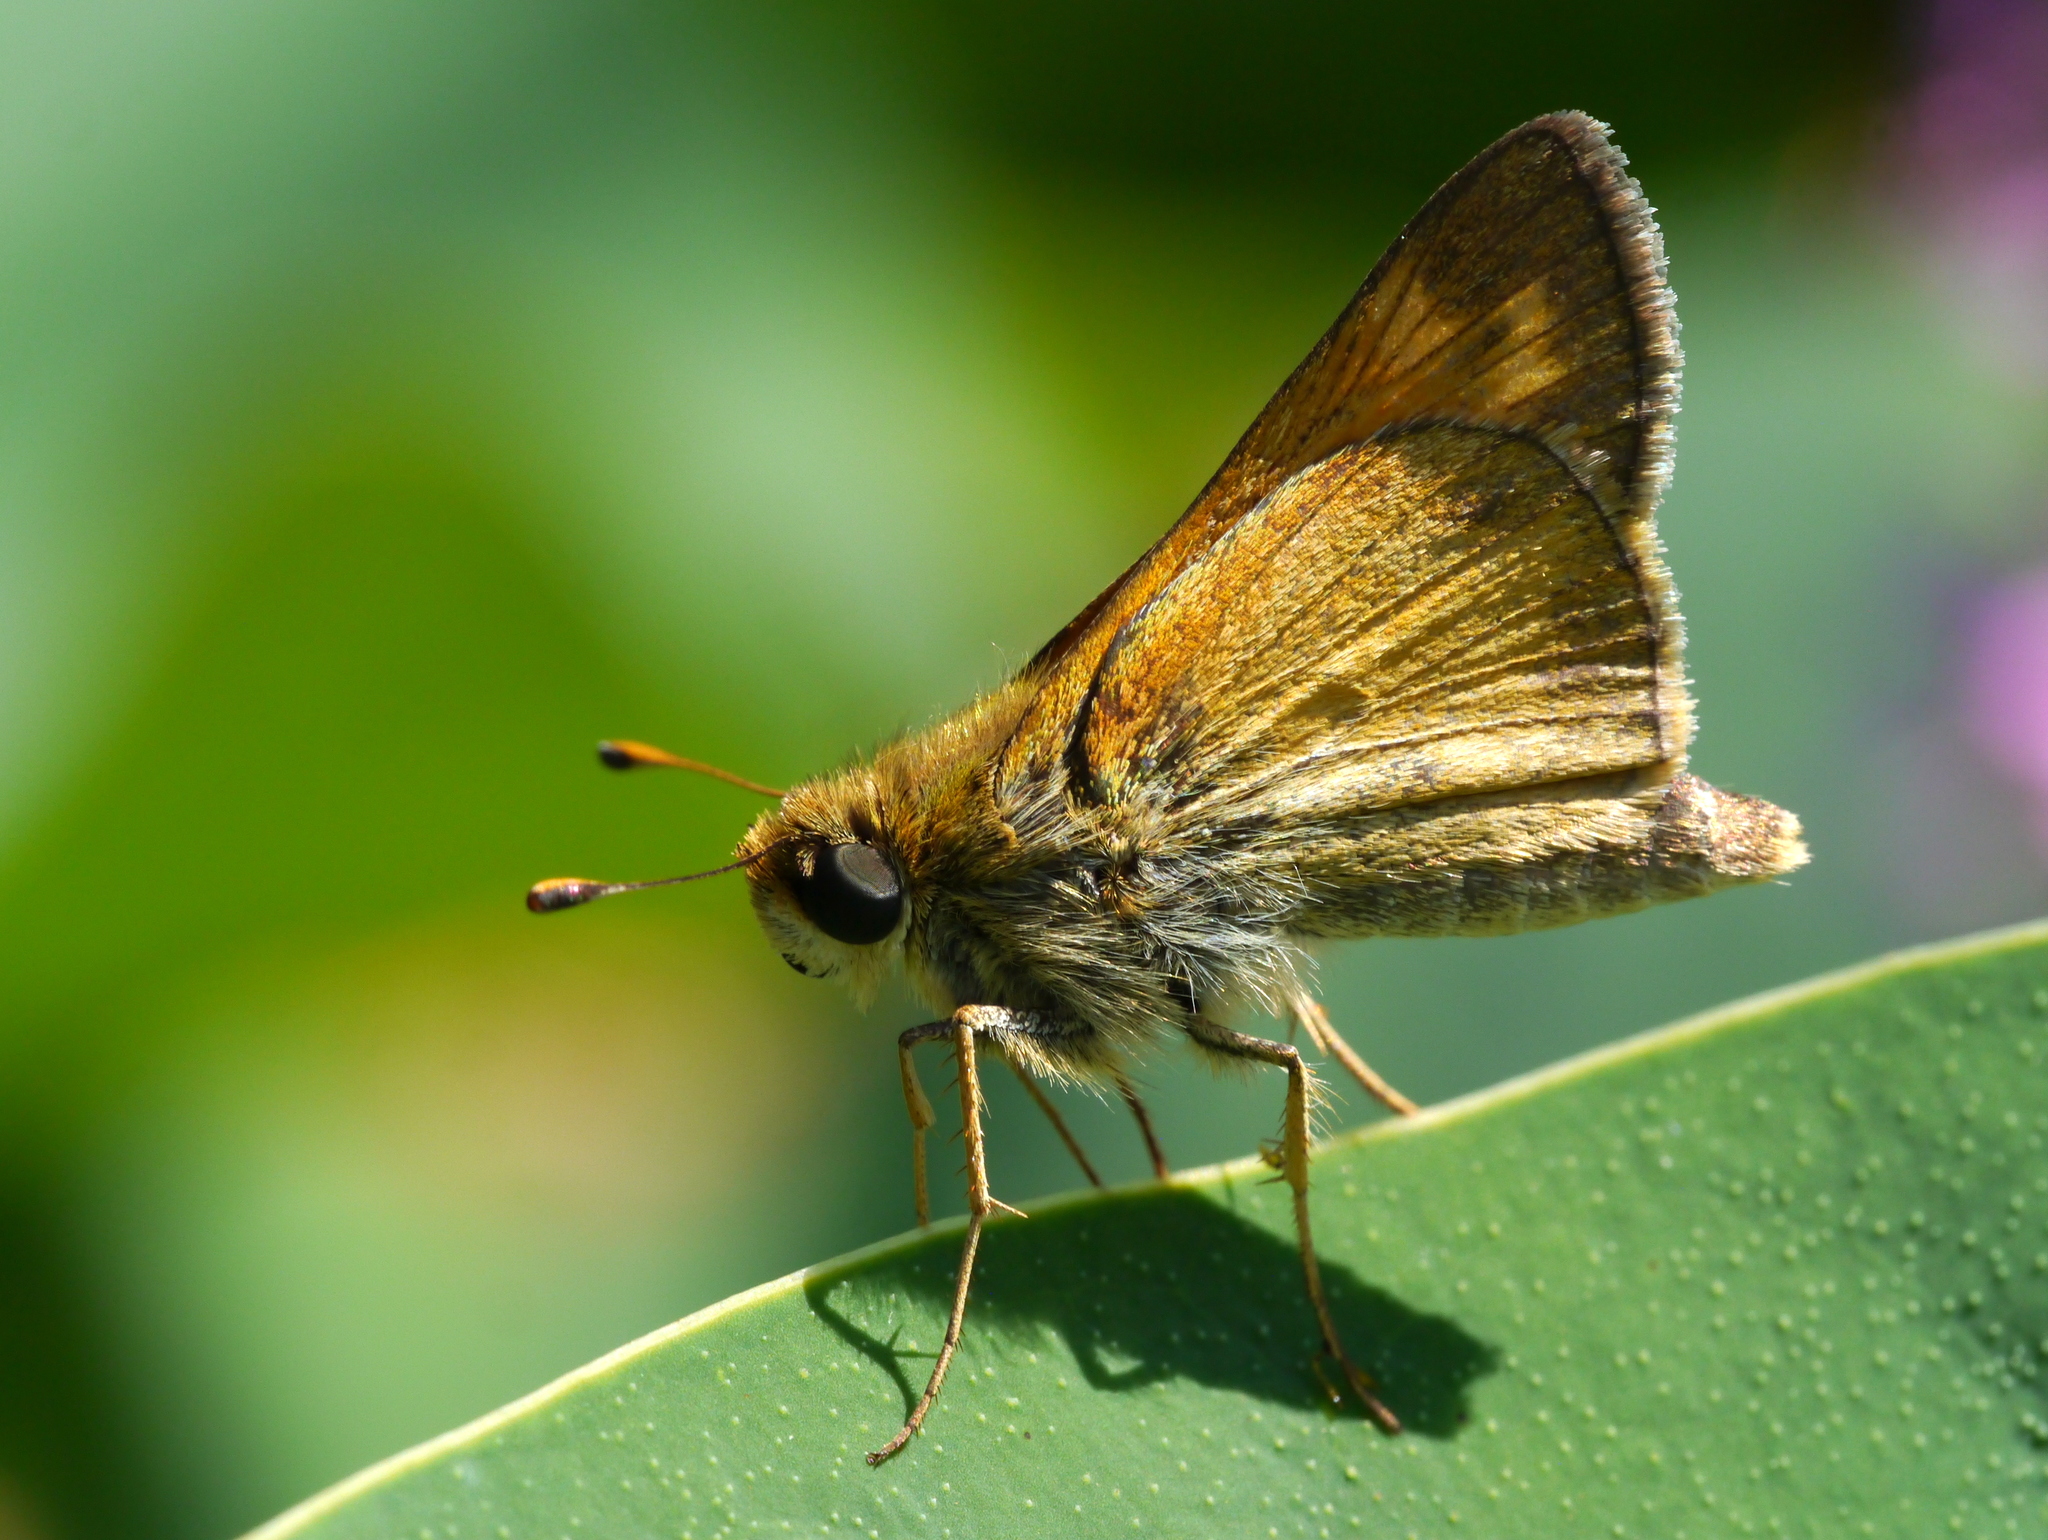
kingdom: Animalia
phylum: Arthropoda
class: Insecta
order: Lepidoptera
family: Hesperiidae
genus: Atalopedes
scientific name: Atalopedes
